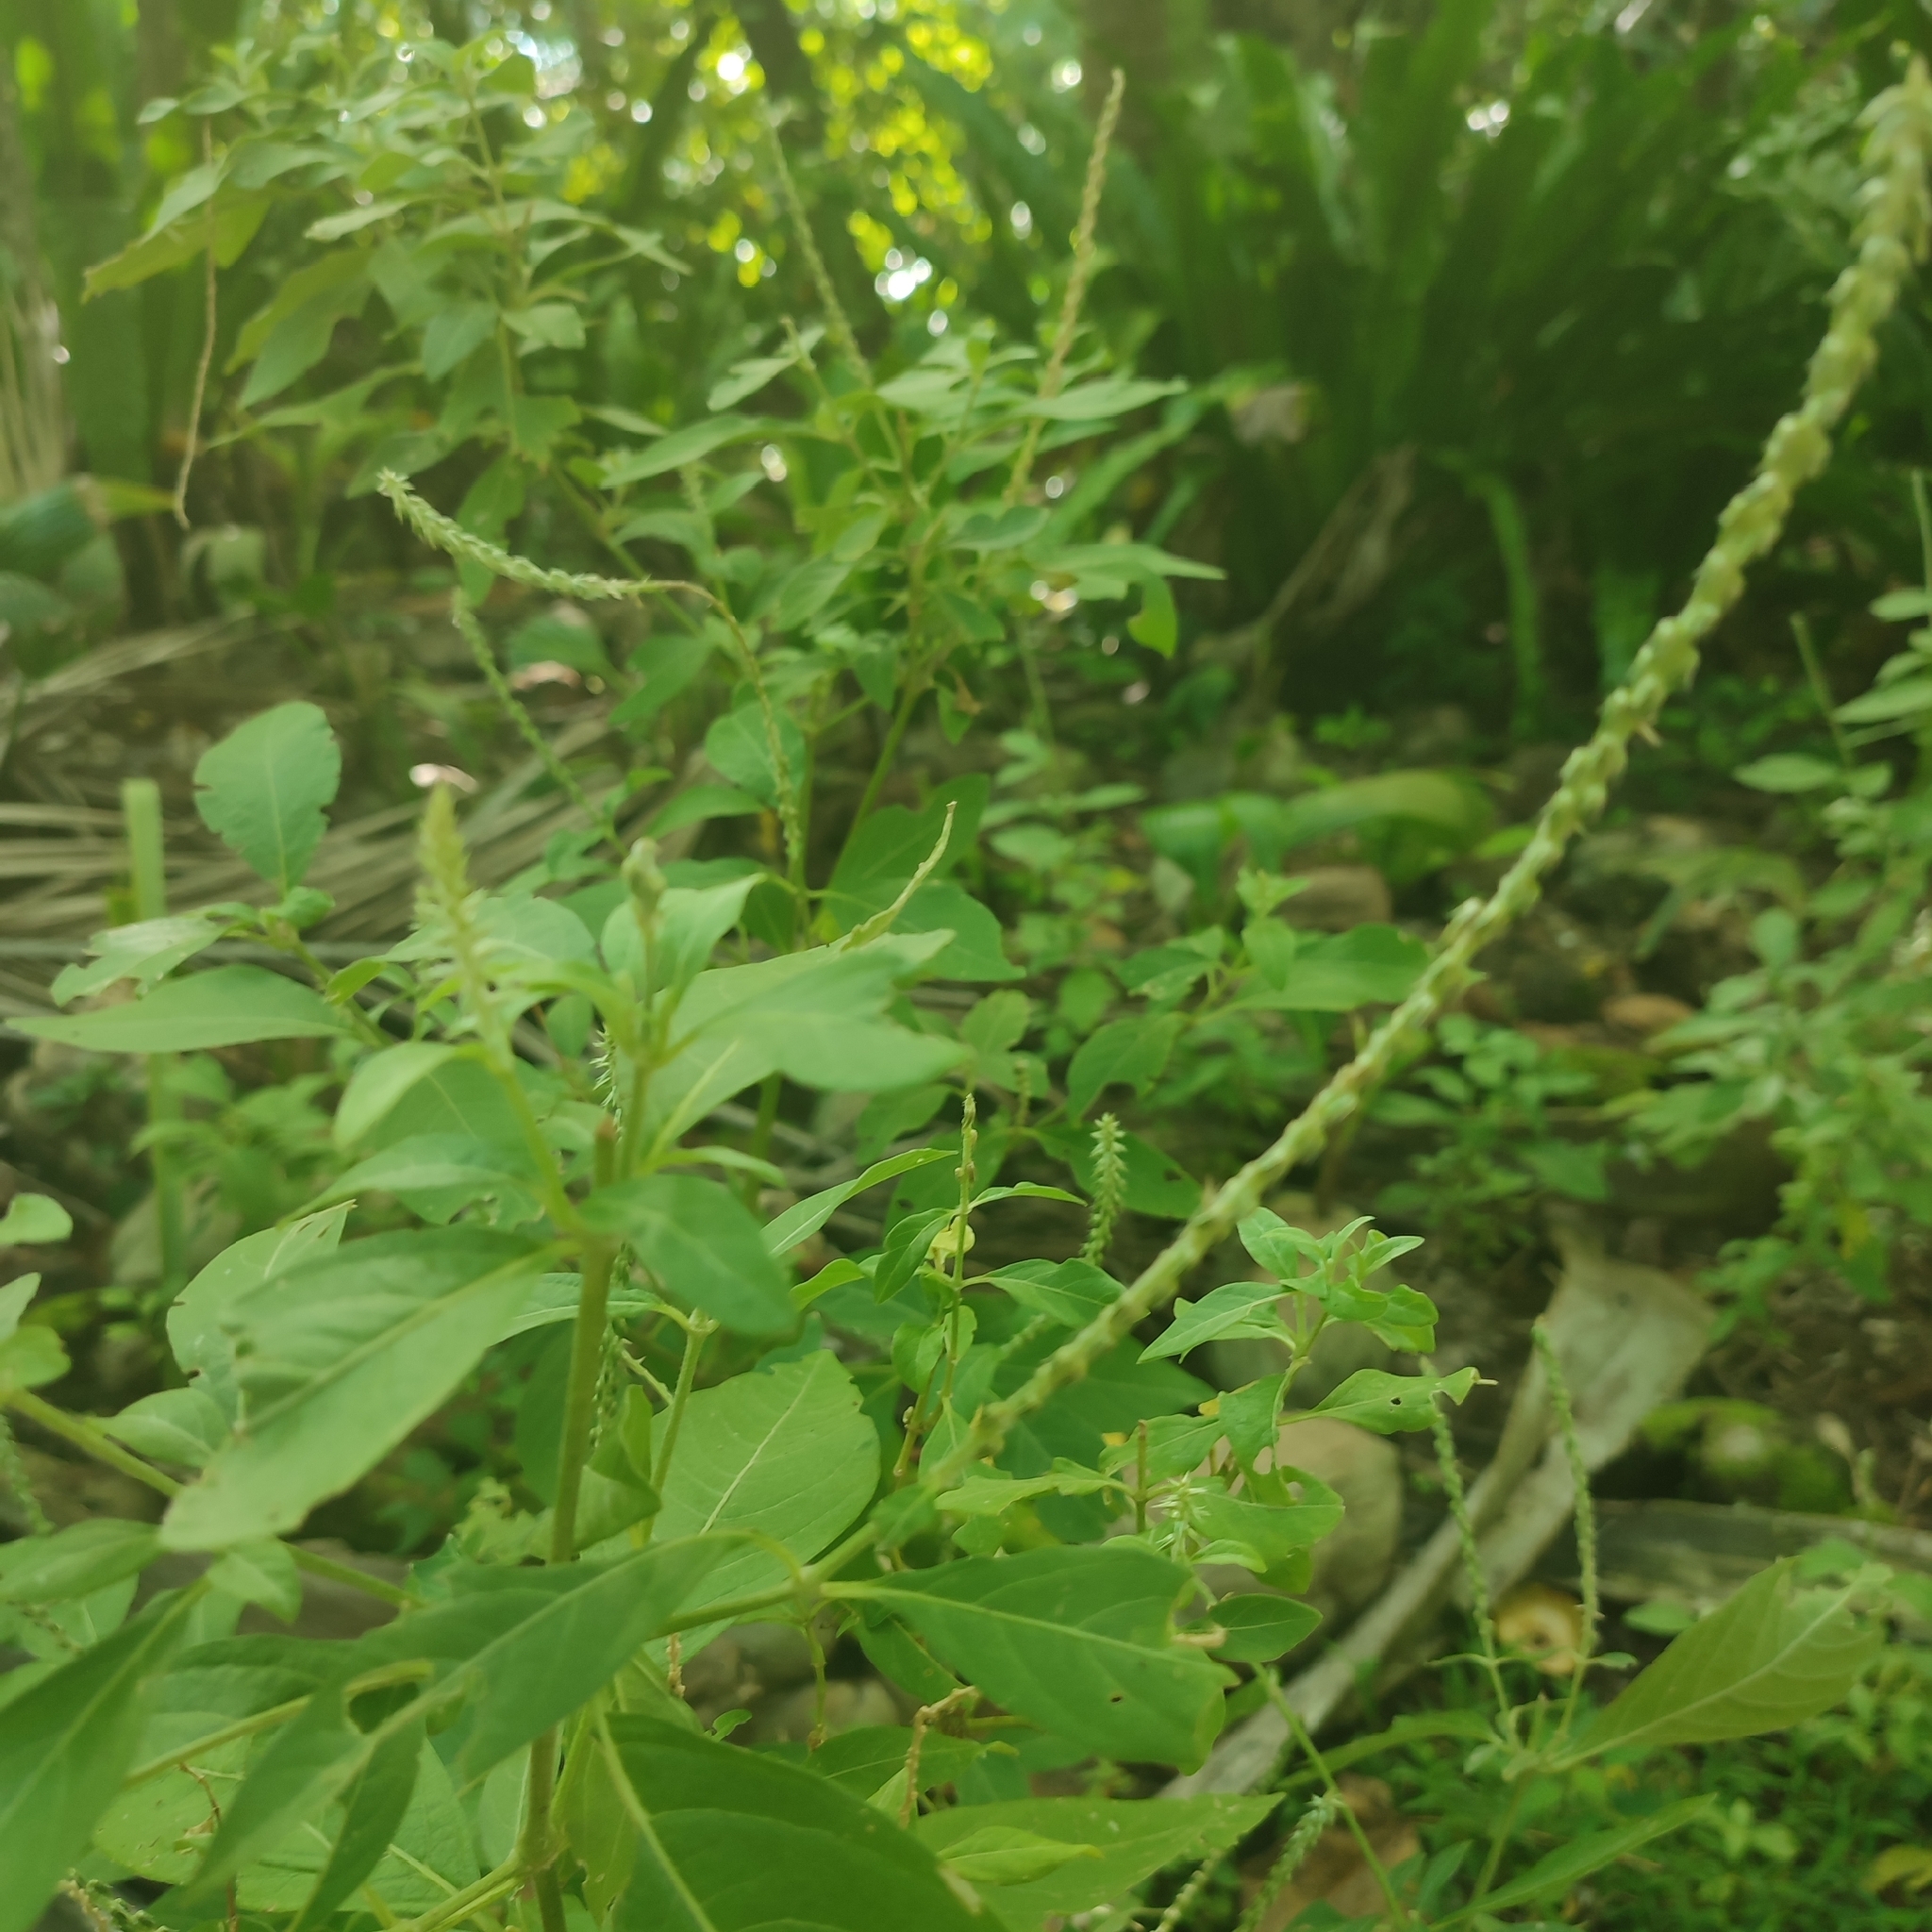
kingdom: Plantae
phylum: Tracheophyta
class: Magnoliopsida
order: Caryophyllales
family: Amaranthaceae
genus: Achyranthes
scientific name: Achyranthes aspera
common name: Devil's horsewhip
